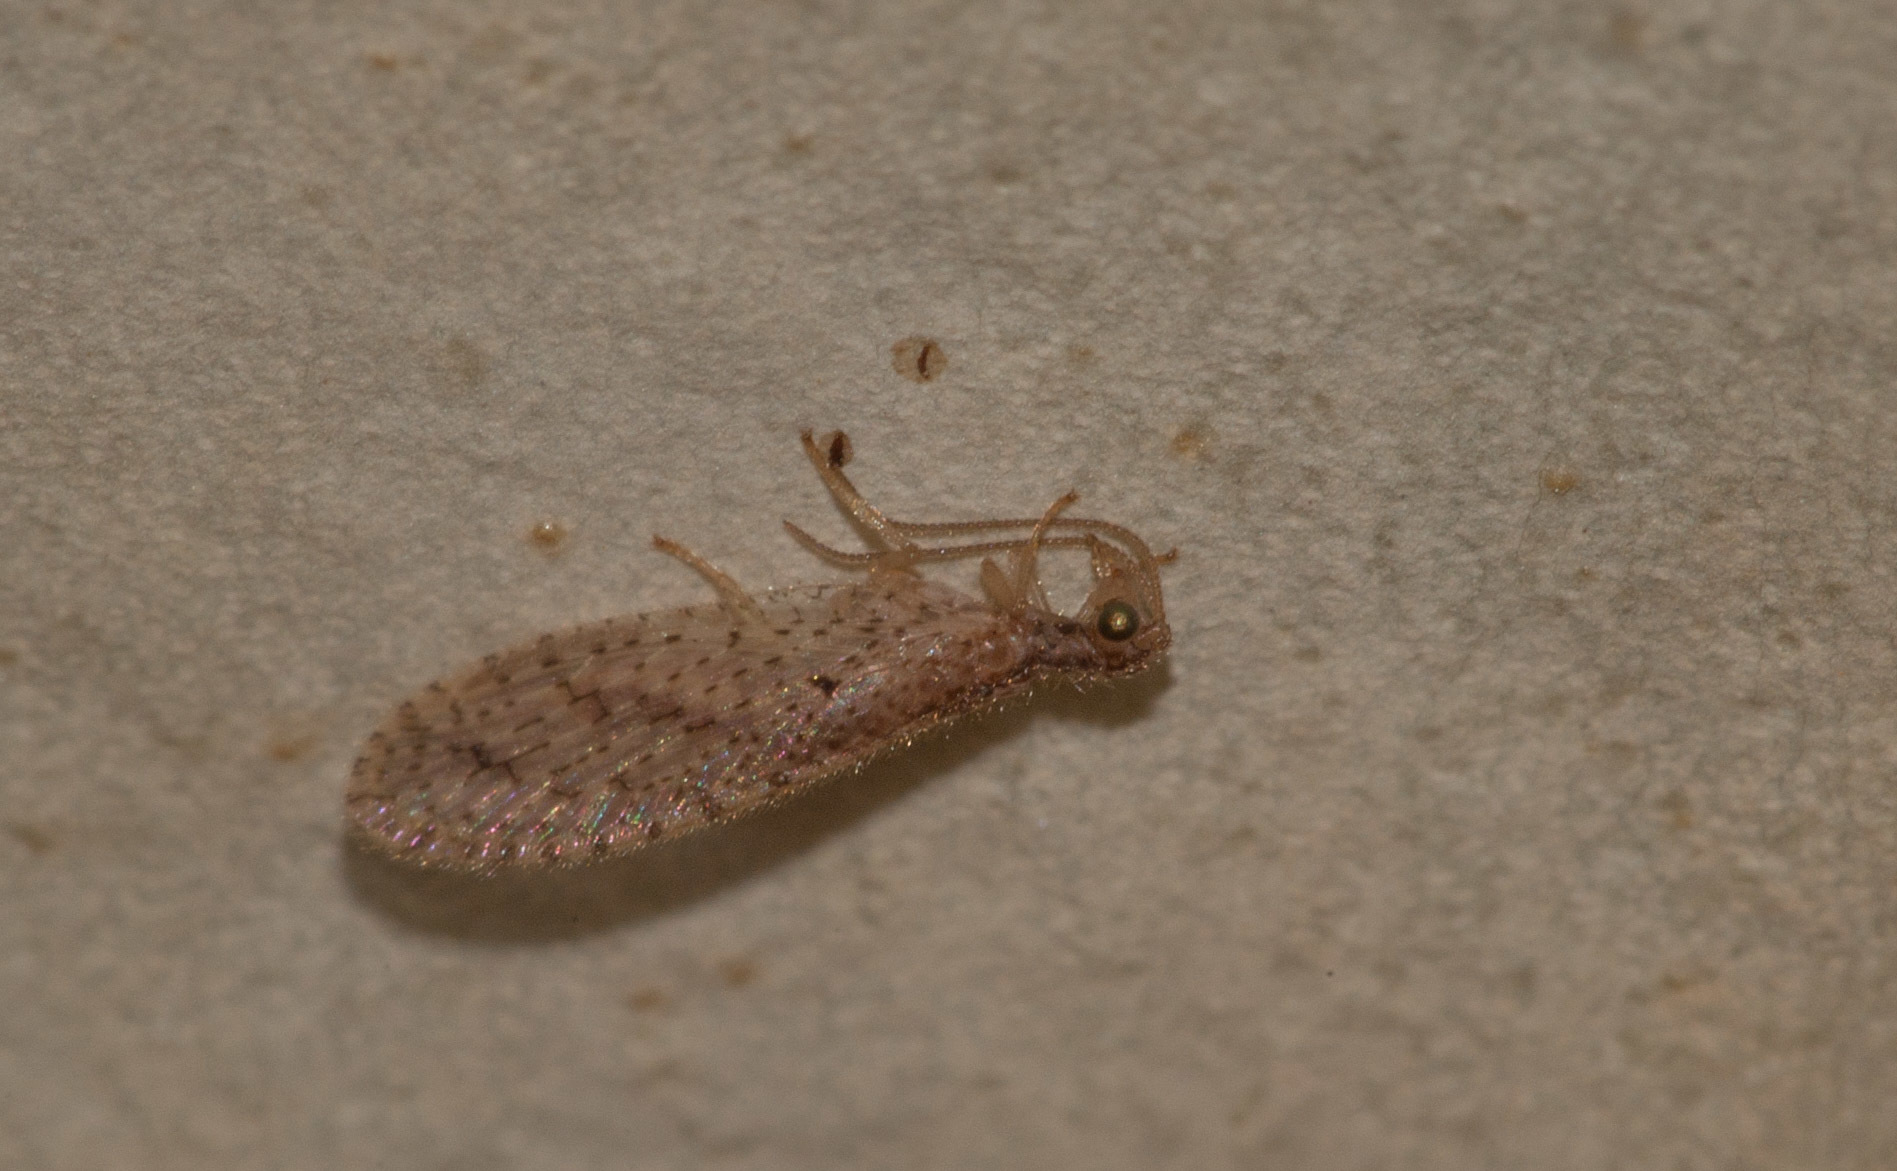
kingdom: Animalia
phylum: Arthropoda
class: Insecta
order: Neuroptera
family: Hemerobiidae
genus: Micromus
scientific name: Micromus tasmaniae
